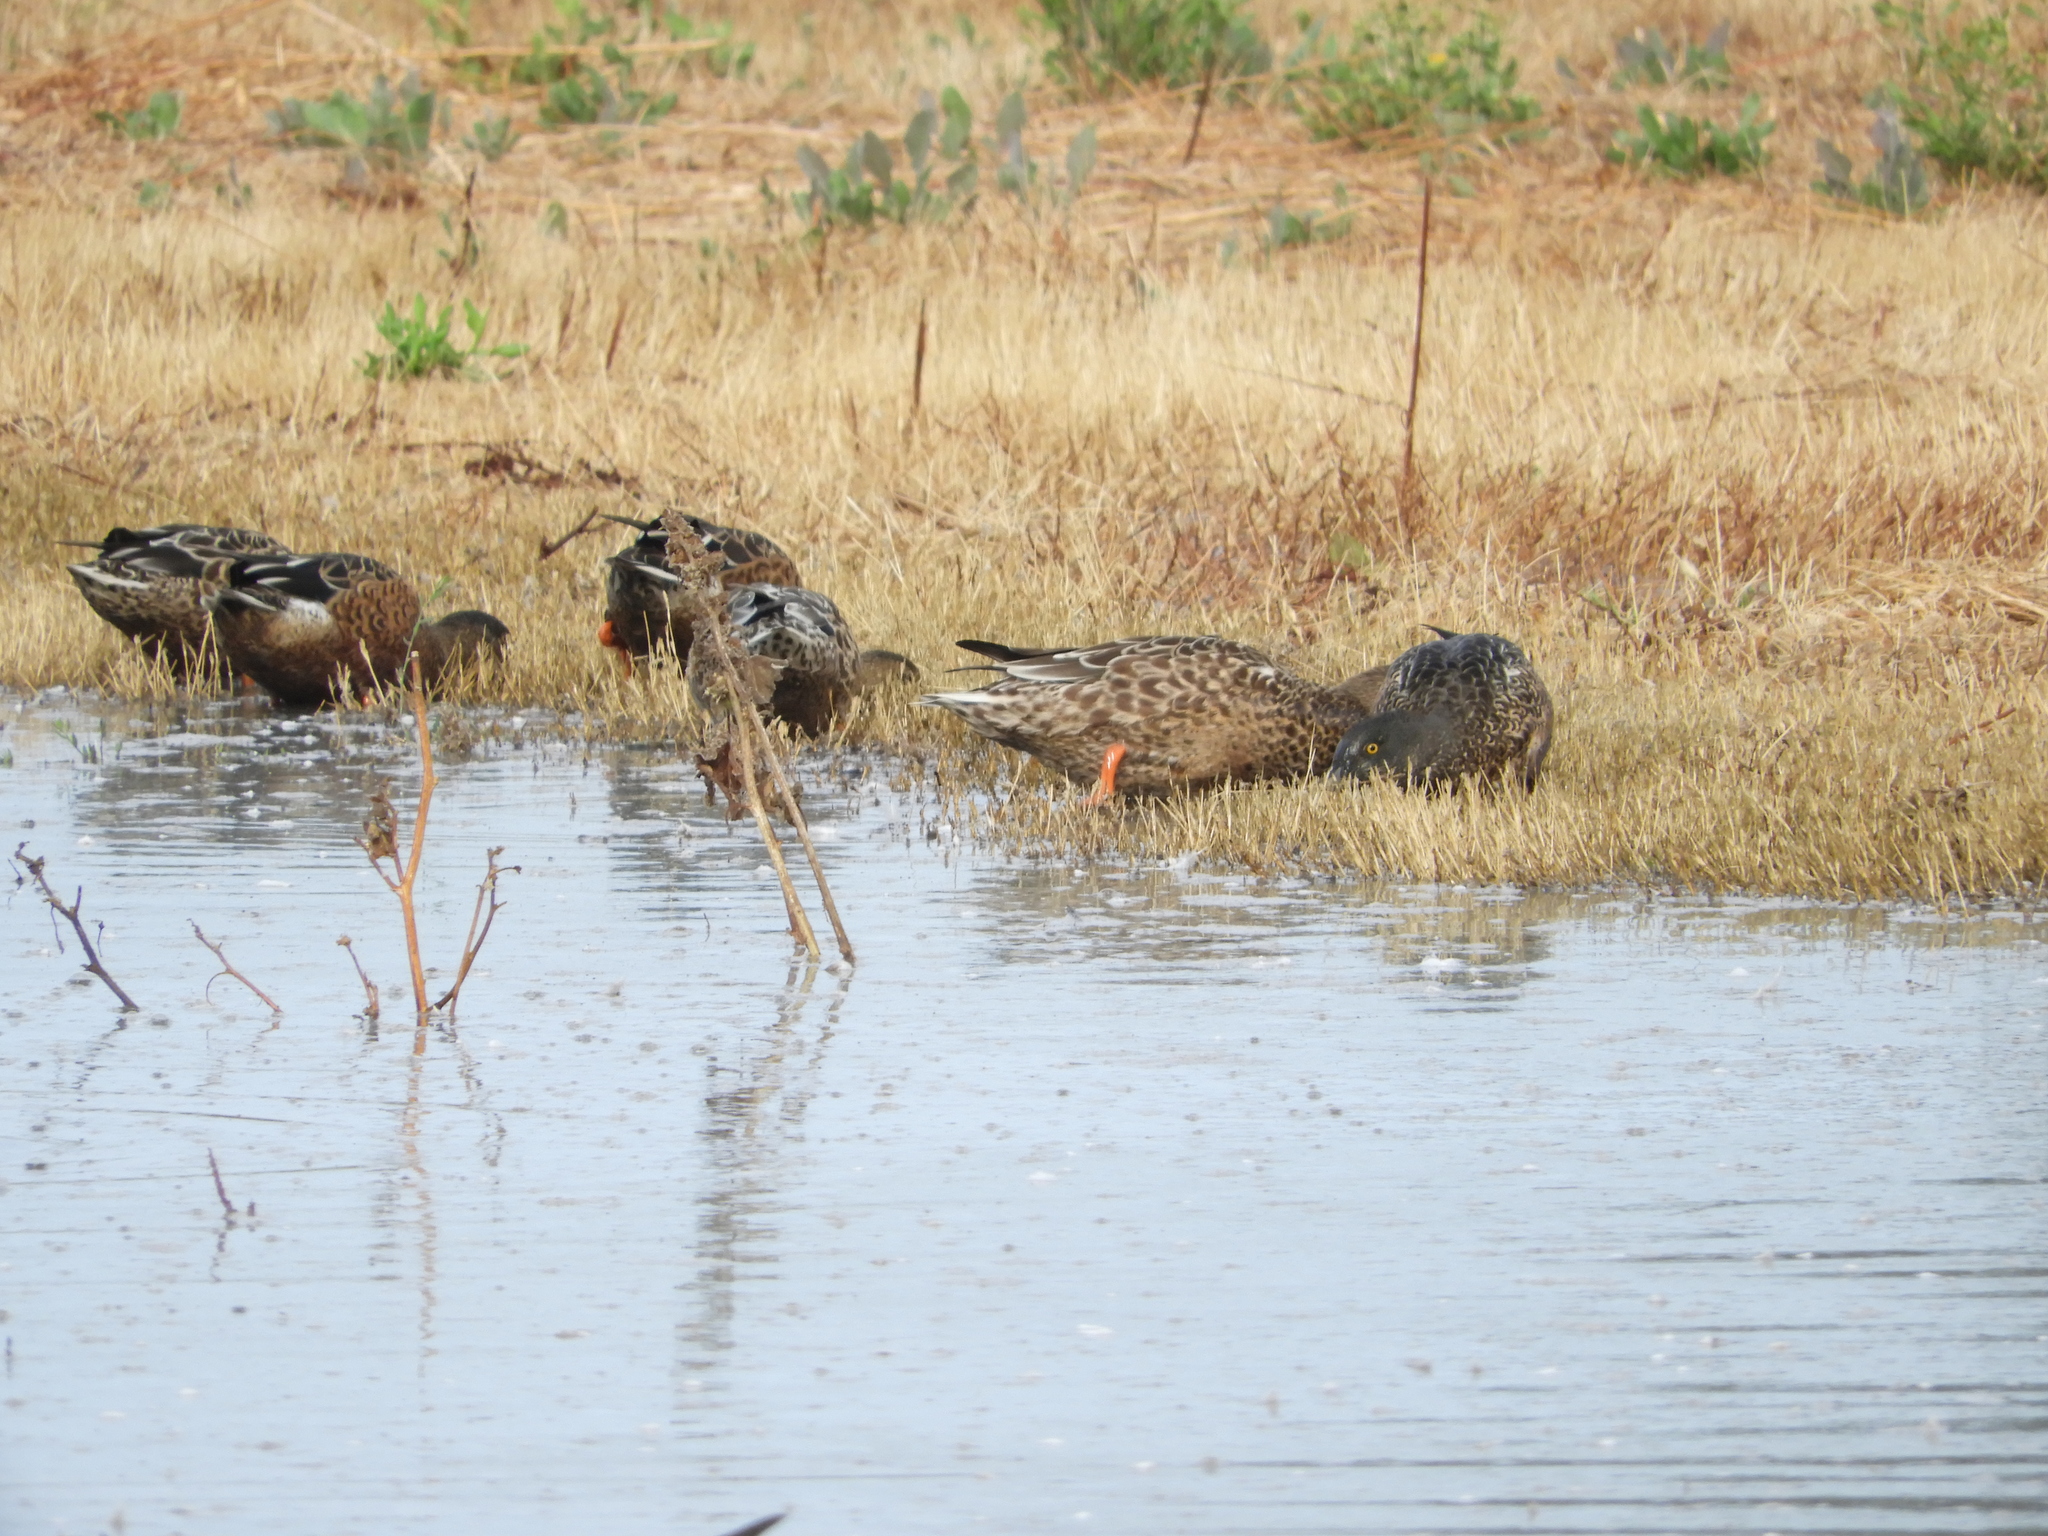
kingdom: Animalia
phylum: Chordata
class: Aves
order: Anseriformes
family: Anatidae
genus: Spatula
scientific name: Spatula clypeata
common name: Northern shoveler
